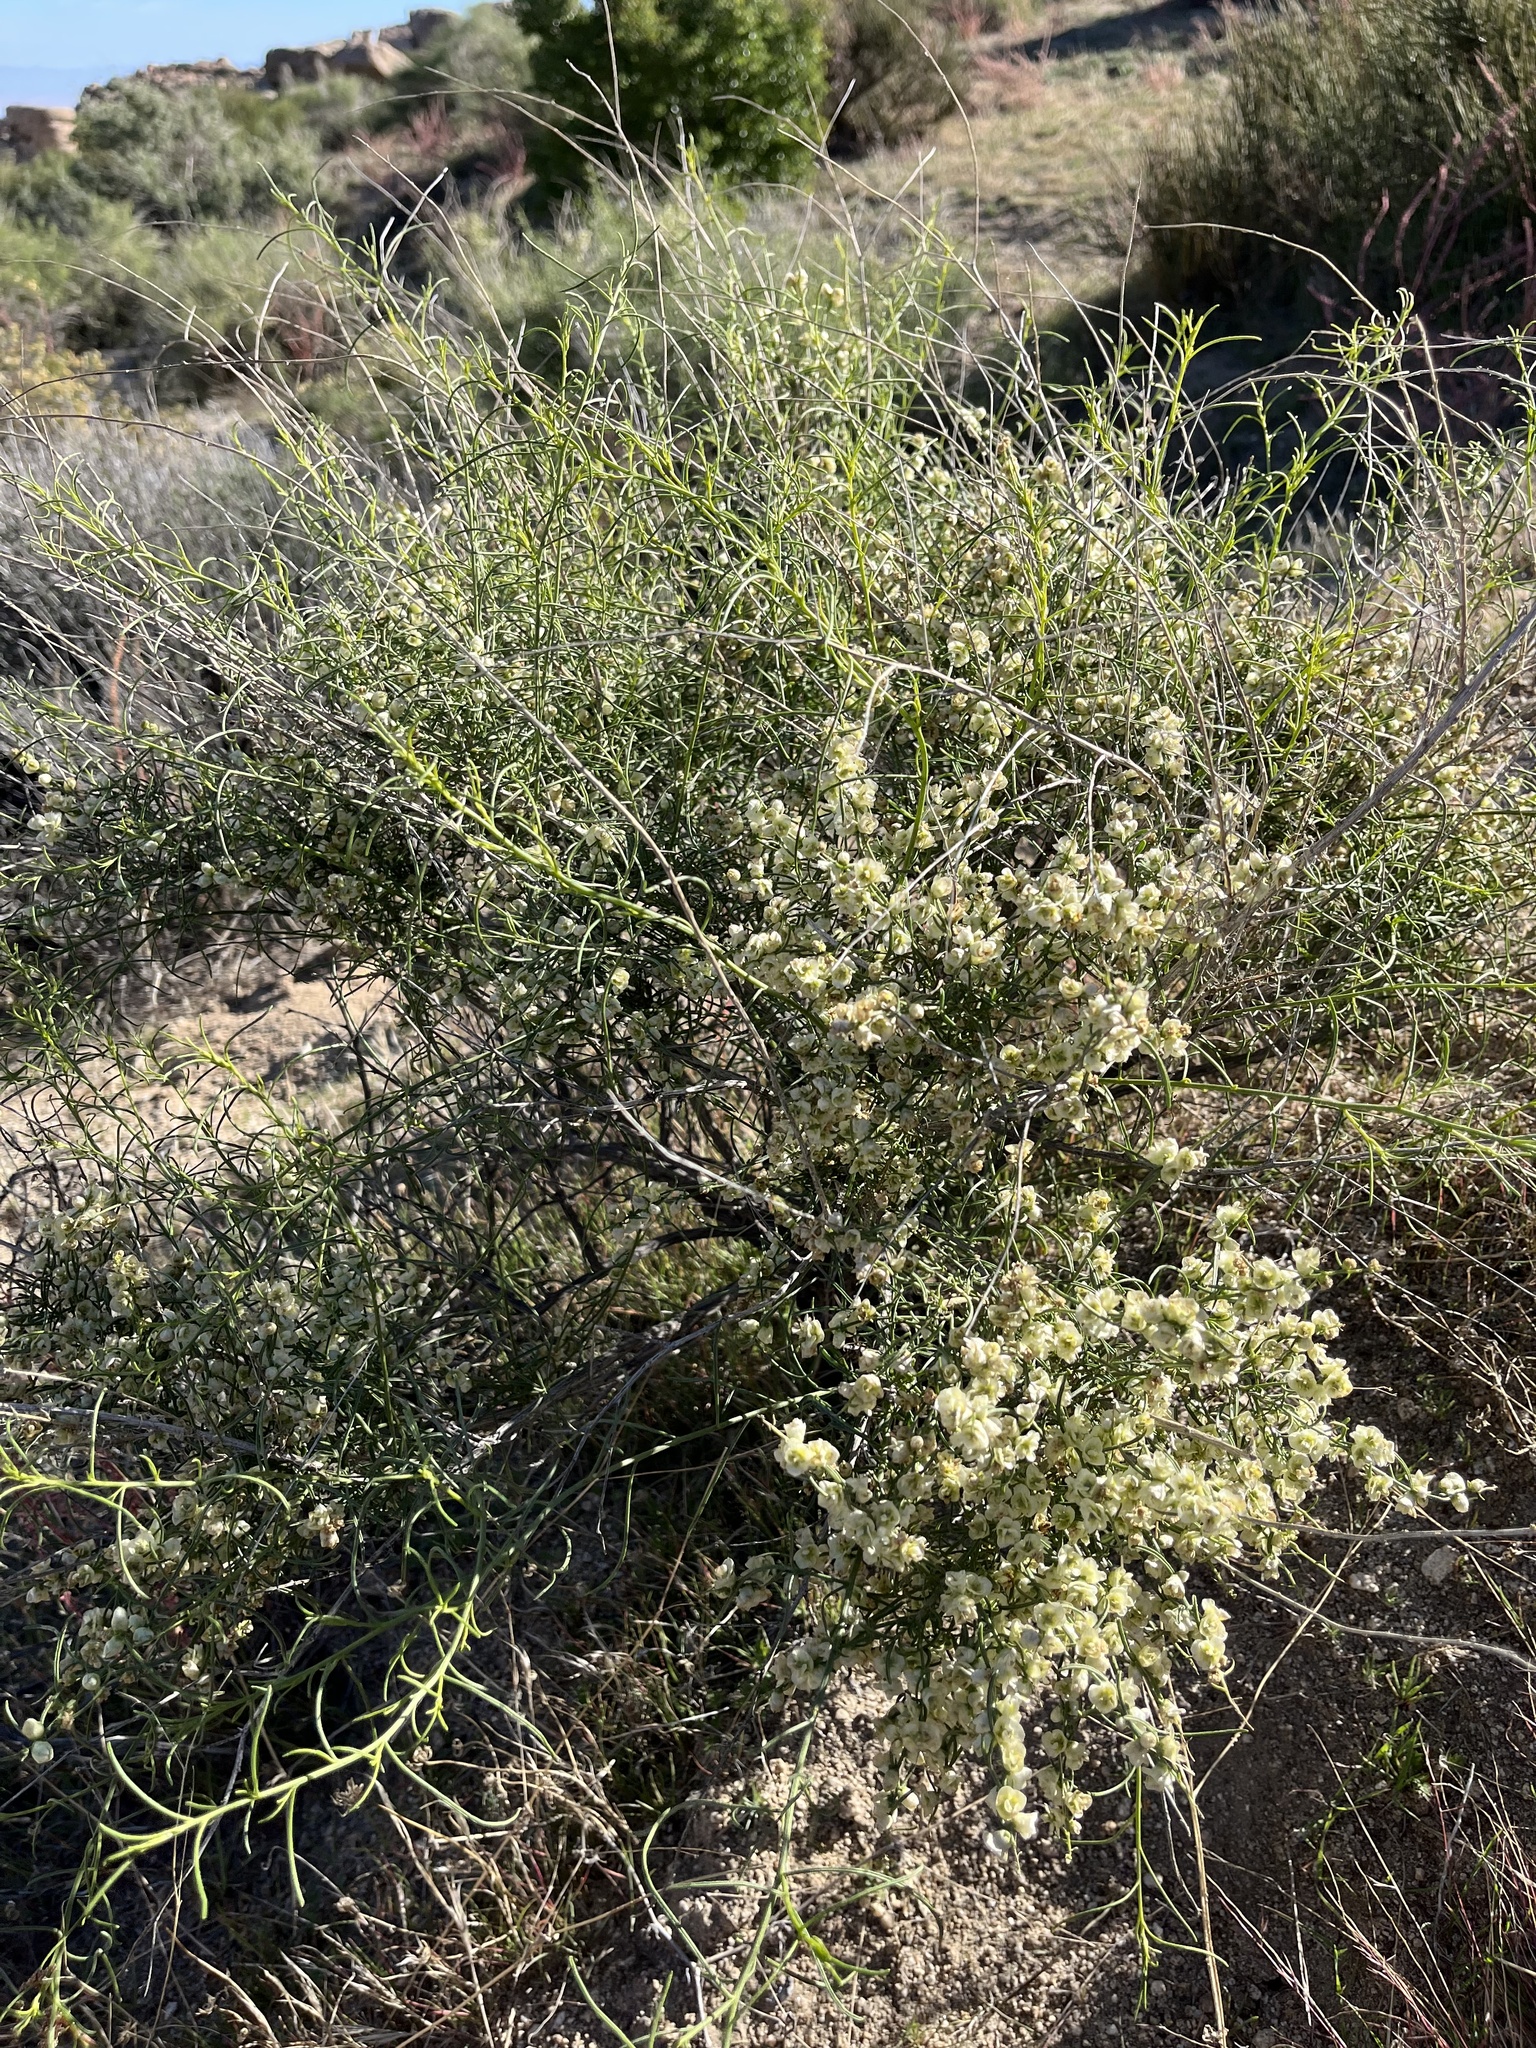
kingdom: Plantae
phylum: Tracheophyta
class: Magnoliopsida
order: Asterales
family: Asteraceae
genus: Ambrosia
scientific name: Ambrosia salsola
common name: Burrobrush
